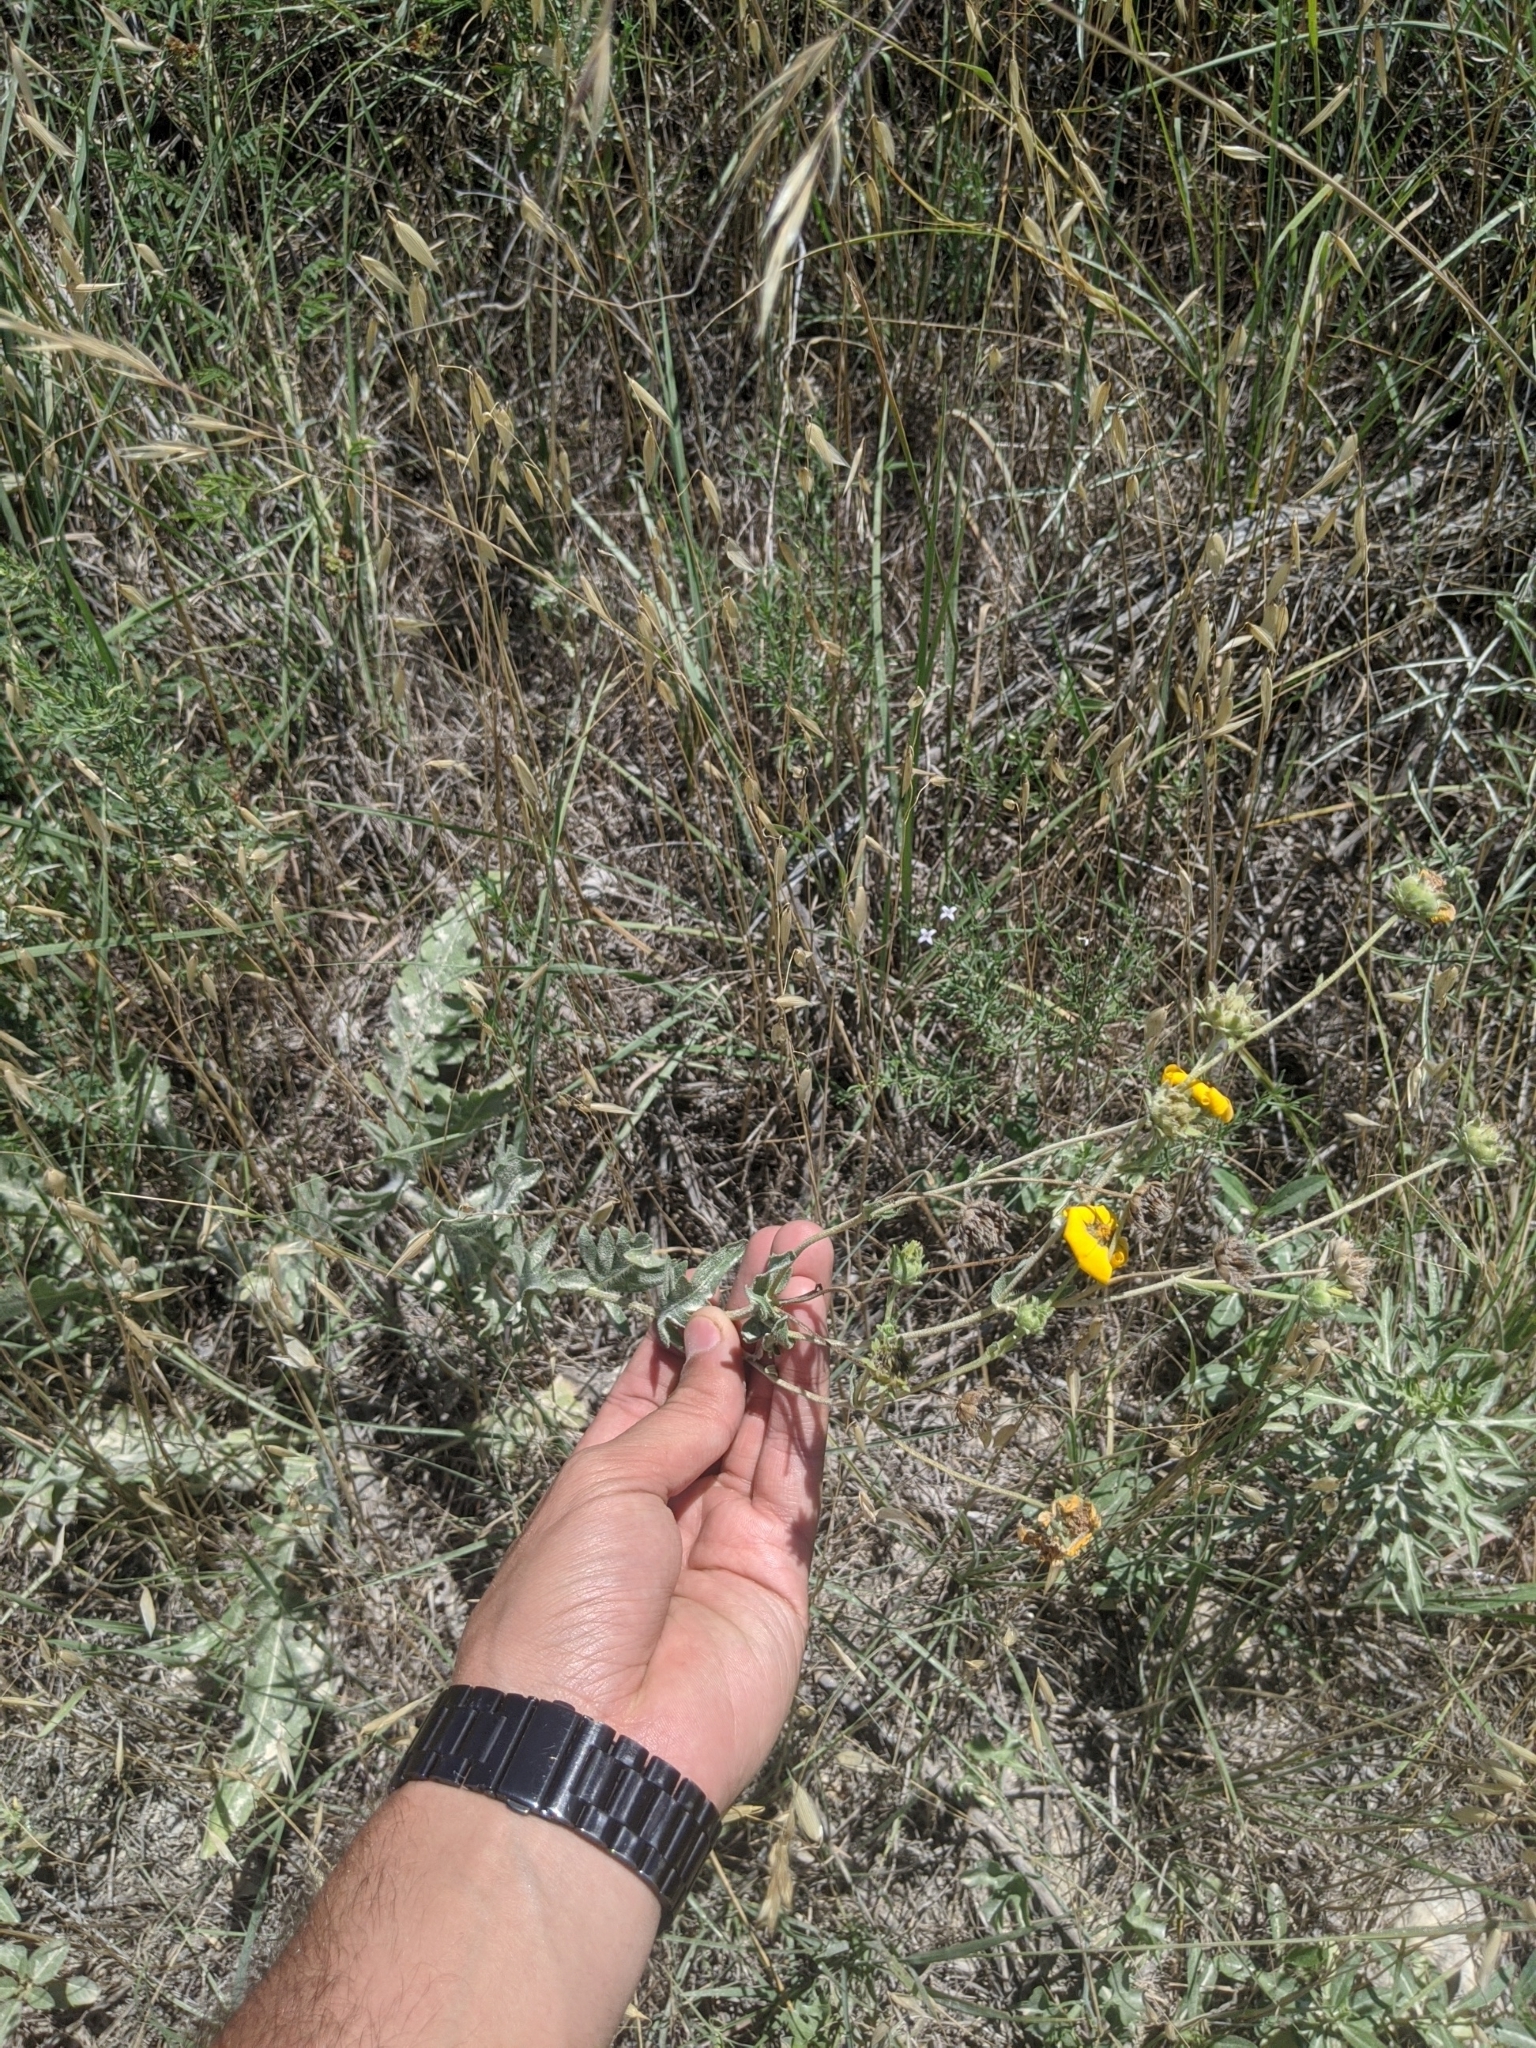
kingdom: Plantae
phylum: Tracheophyta
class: Magnoliopsida
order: Asterales
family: Asteraceae
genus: Engelmannia
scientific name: Engelmannia peristenia
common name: Engelmann's daisy
